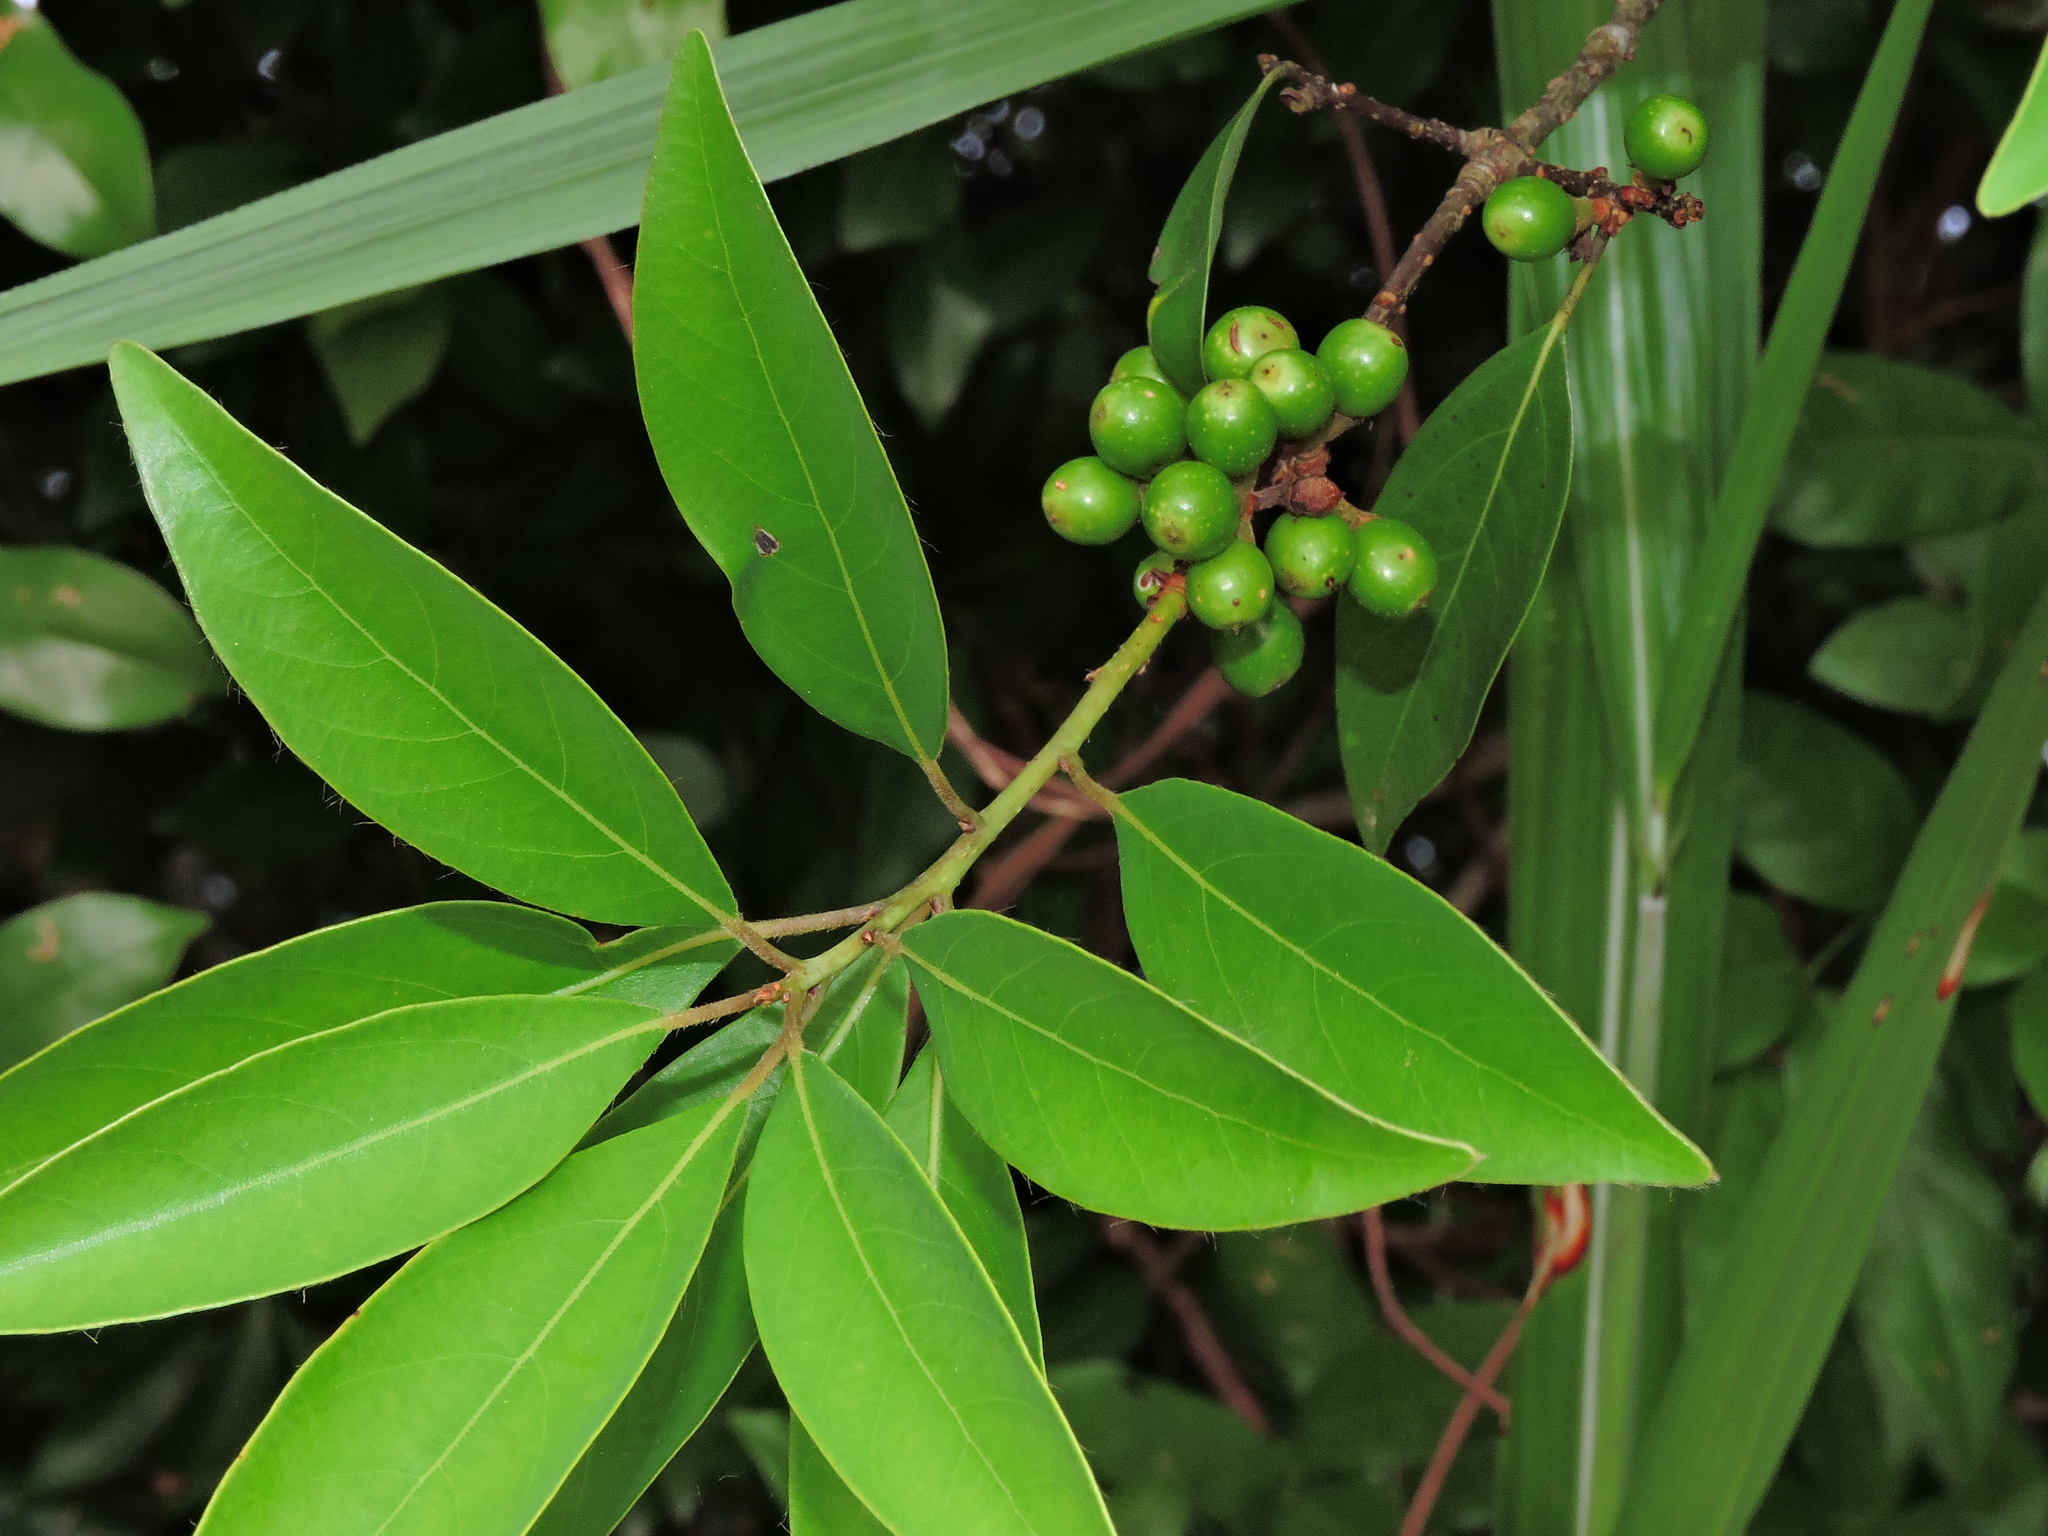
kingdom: Plantae
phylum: Tracheophyta
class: Magnoliopsida
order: Laurales
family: Lauraceae
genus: Litsea
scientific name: Litsea coreana
